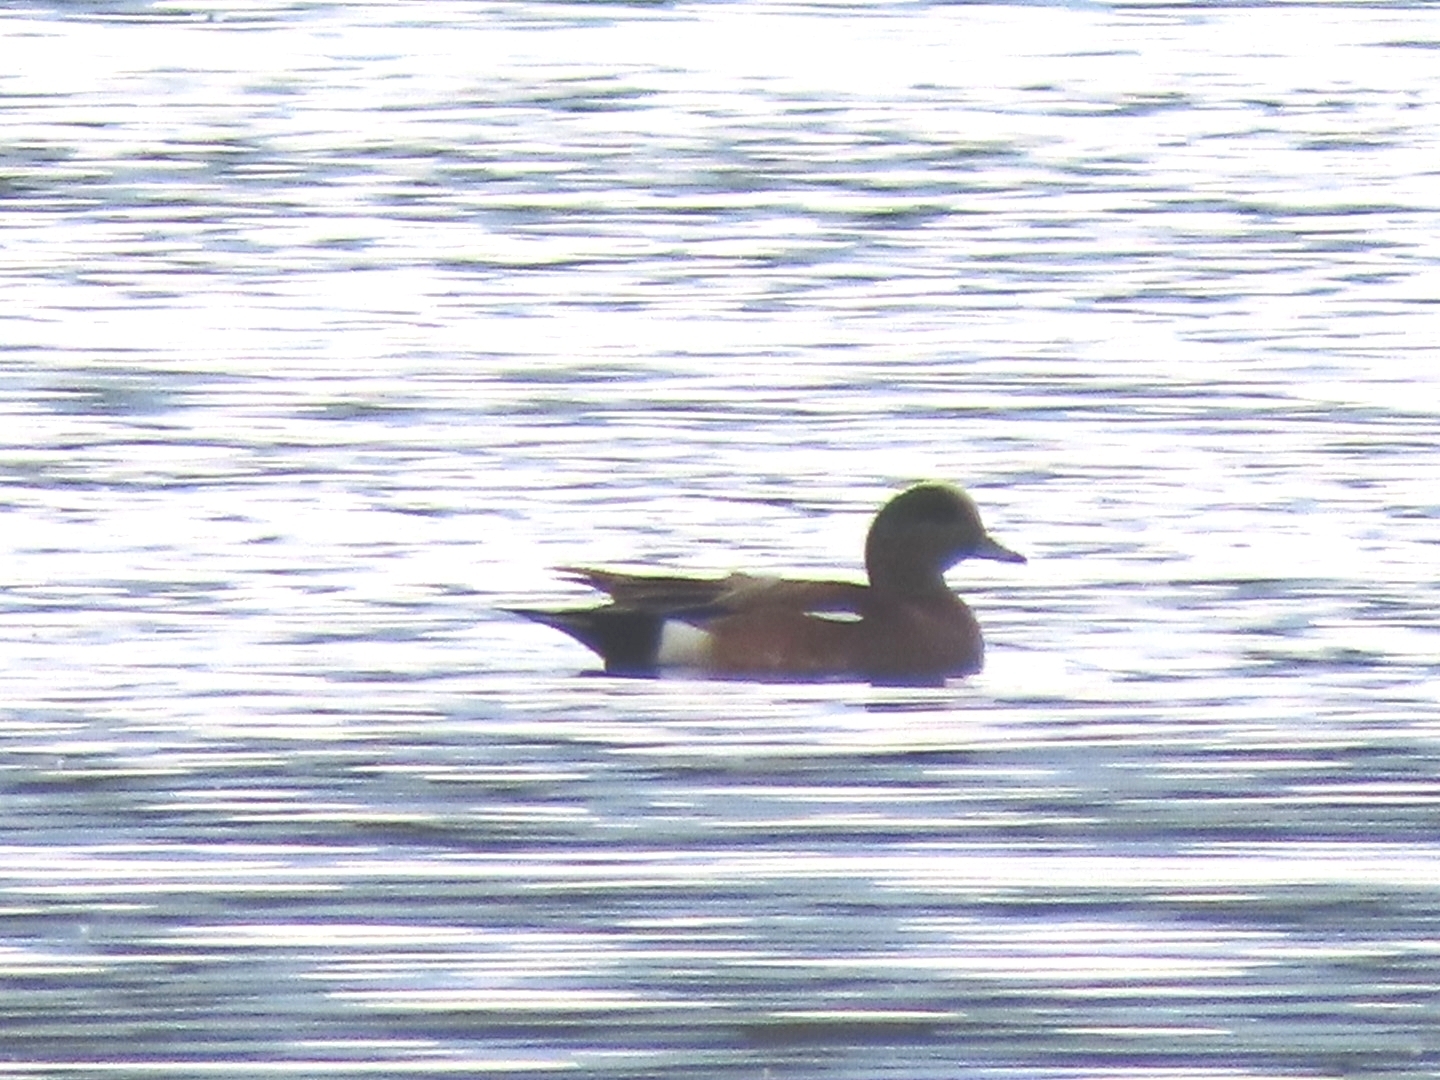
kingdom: Animalia
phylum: Chordata
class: Aves
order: Anseriformes
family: Anatidae
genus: Mareca
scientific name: Mareca americana
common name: American wigeon
